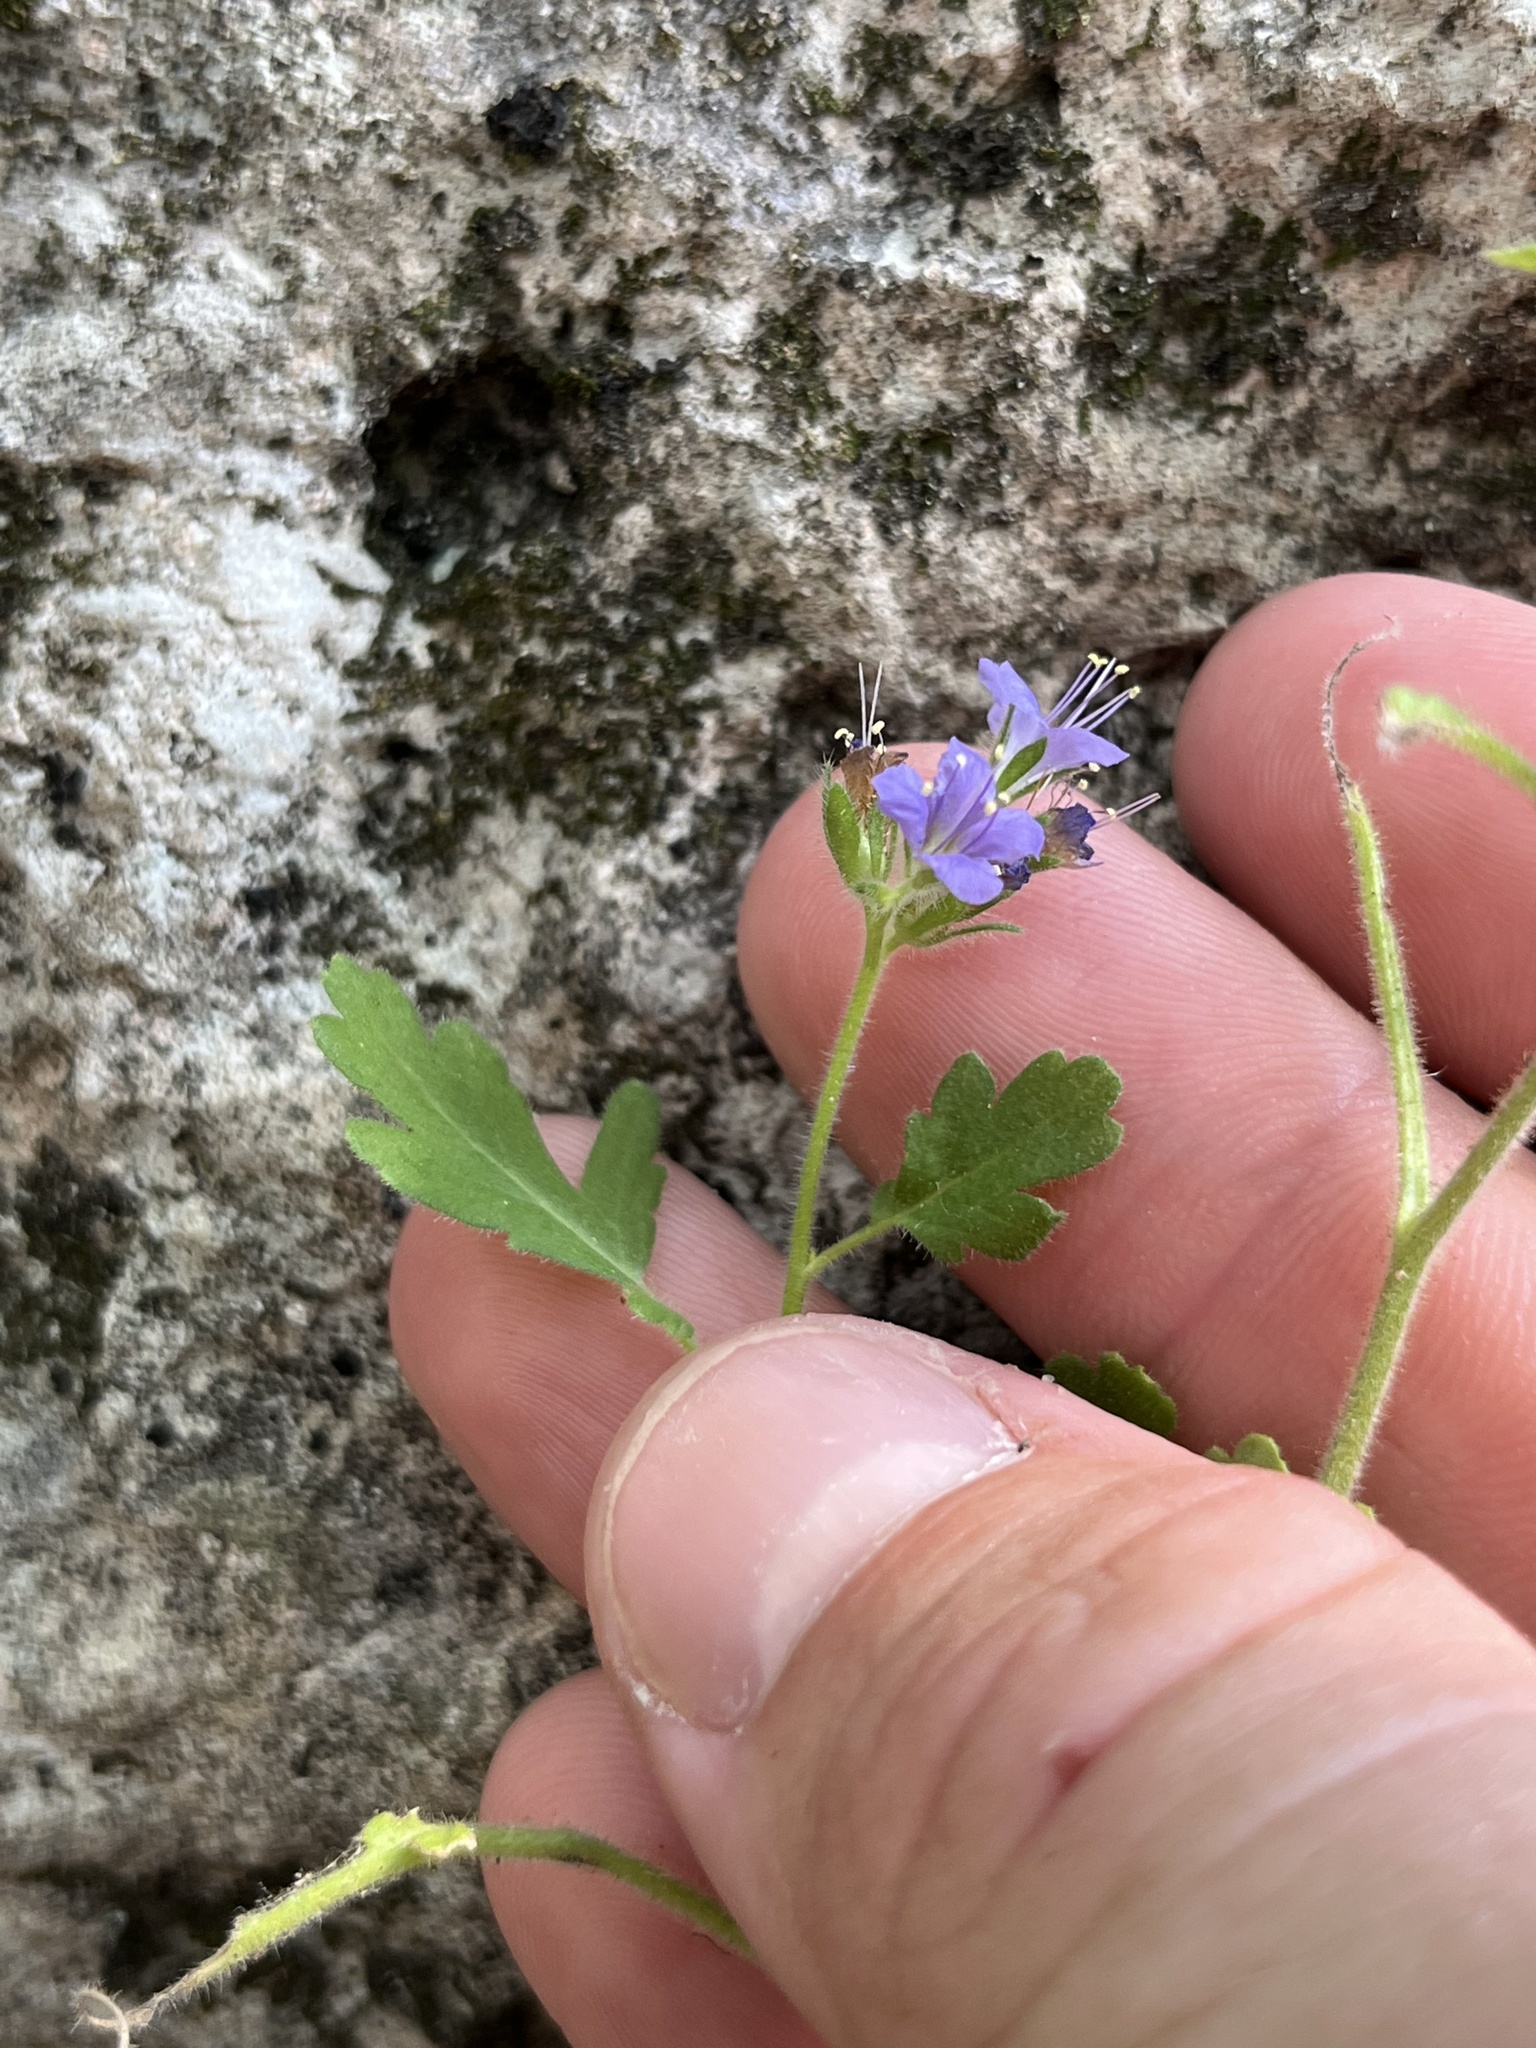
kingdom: Plantae
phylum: Tracheophyta
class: Magnoliopsida
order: Boraginales
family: Hydrophyllaceae
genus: Phacelia
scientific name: Phacelia congesta
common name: Blue curls
